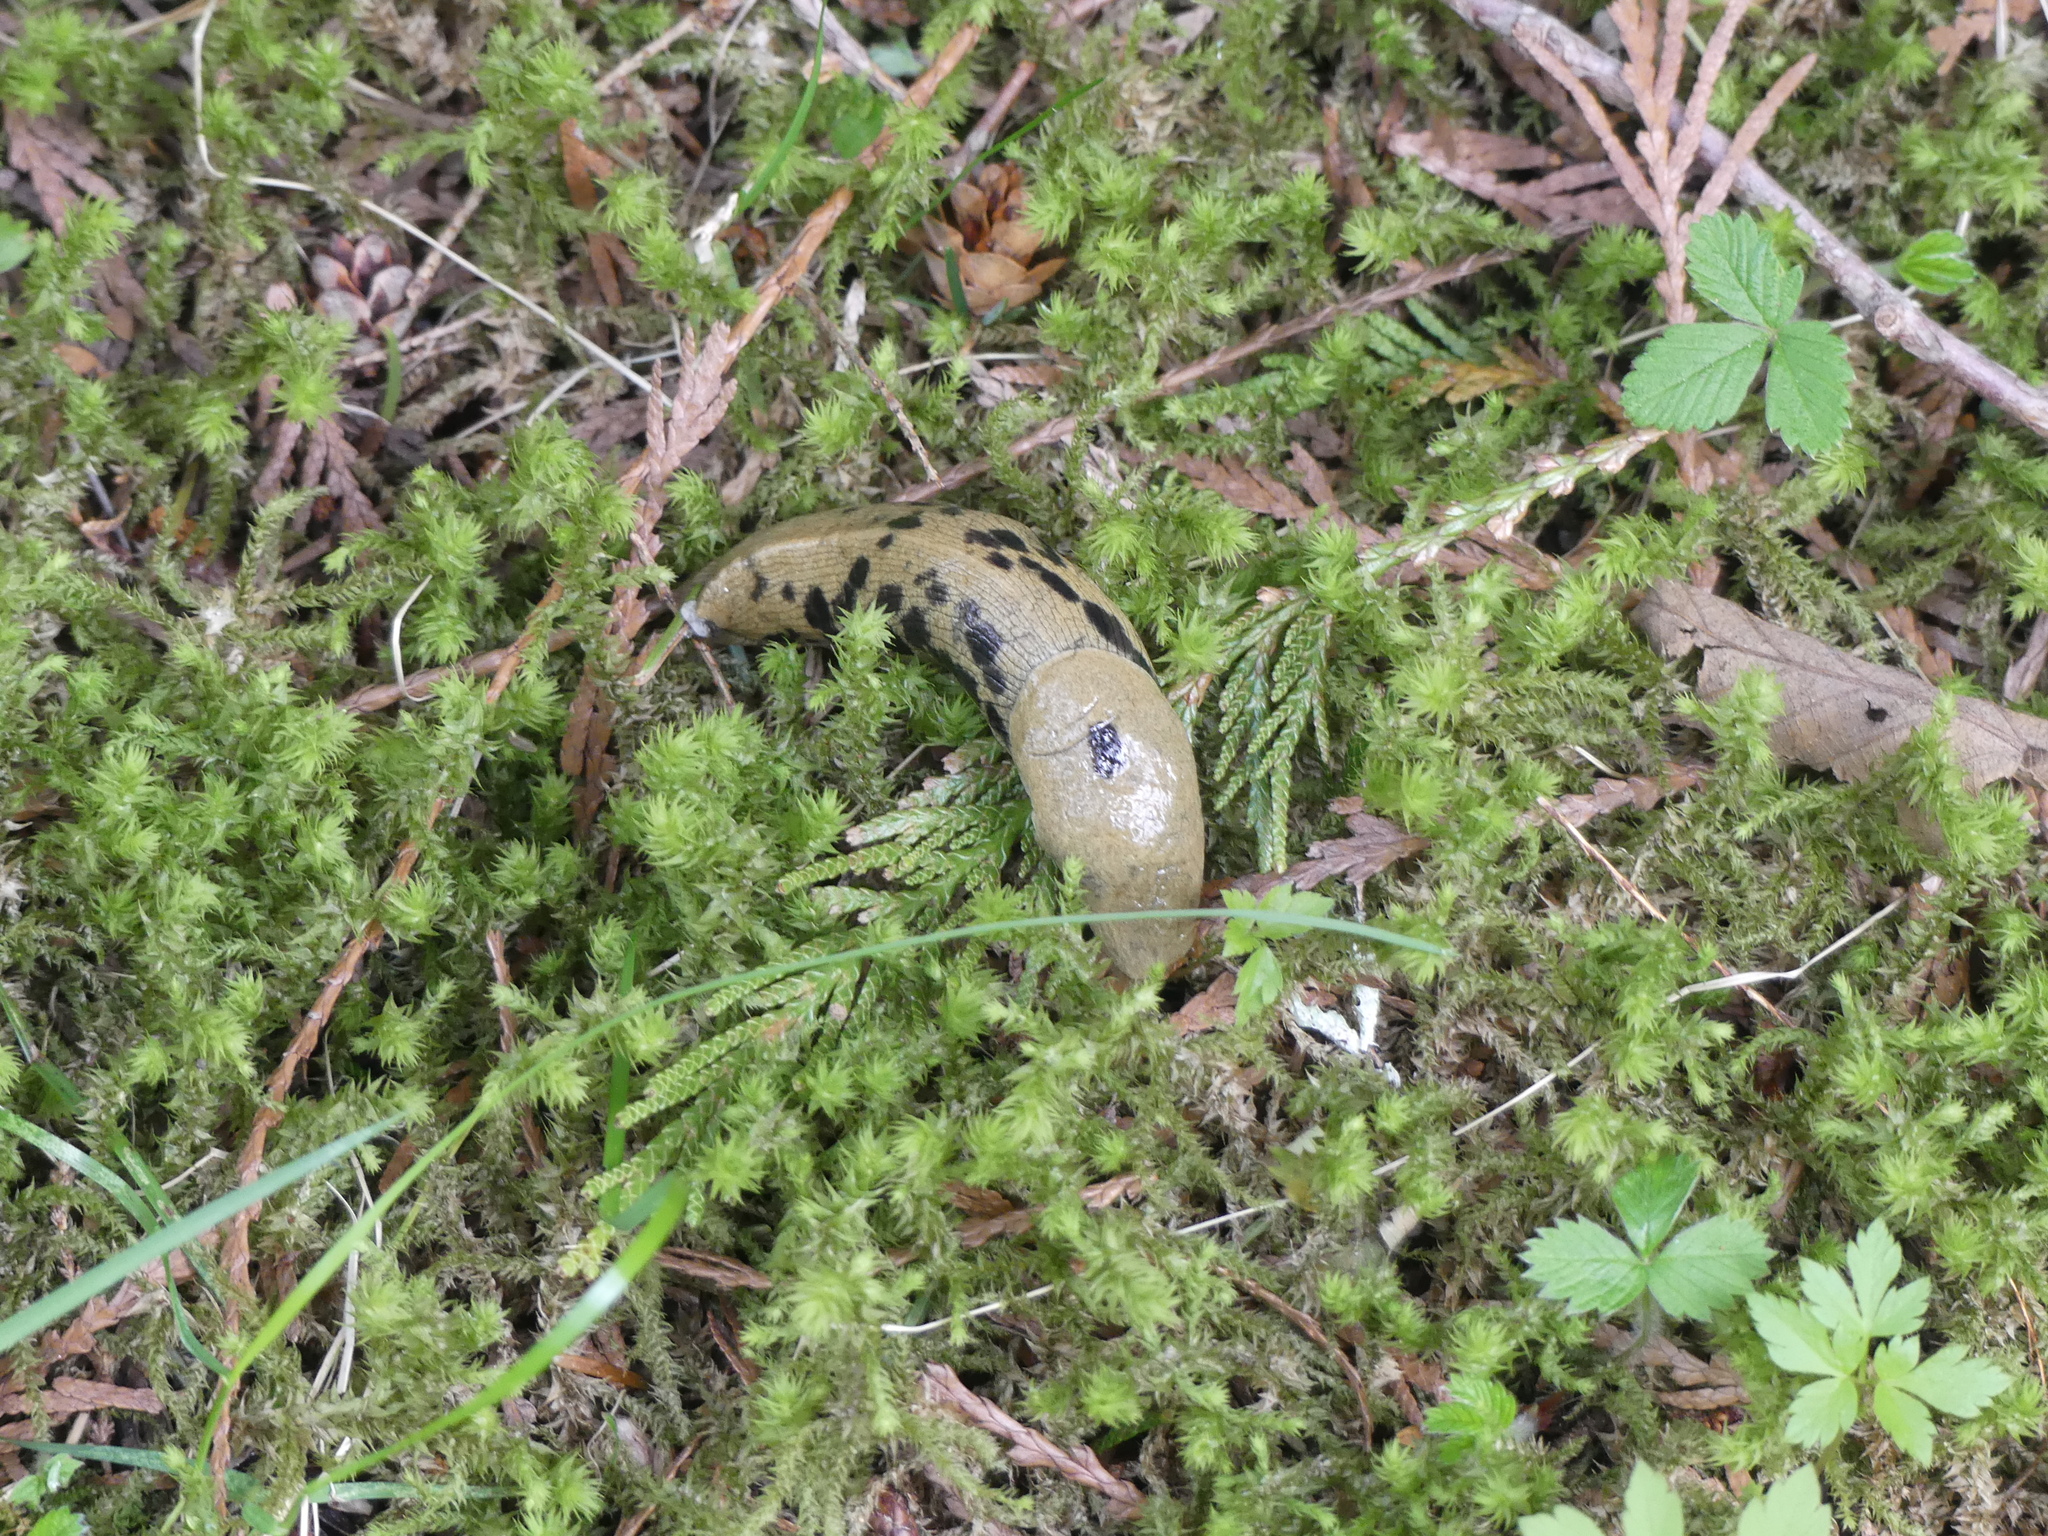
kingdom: Animalia
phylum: Mollusca
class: Gastropoda
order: Stylommatophora
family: Ariolimacidae
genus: Ariolimax
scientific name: Ariolimax columbianus
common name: Pacific banana slug
